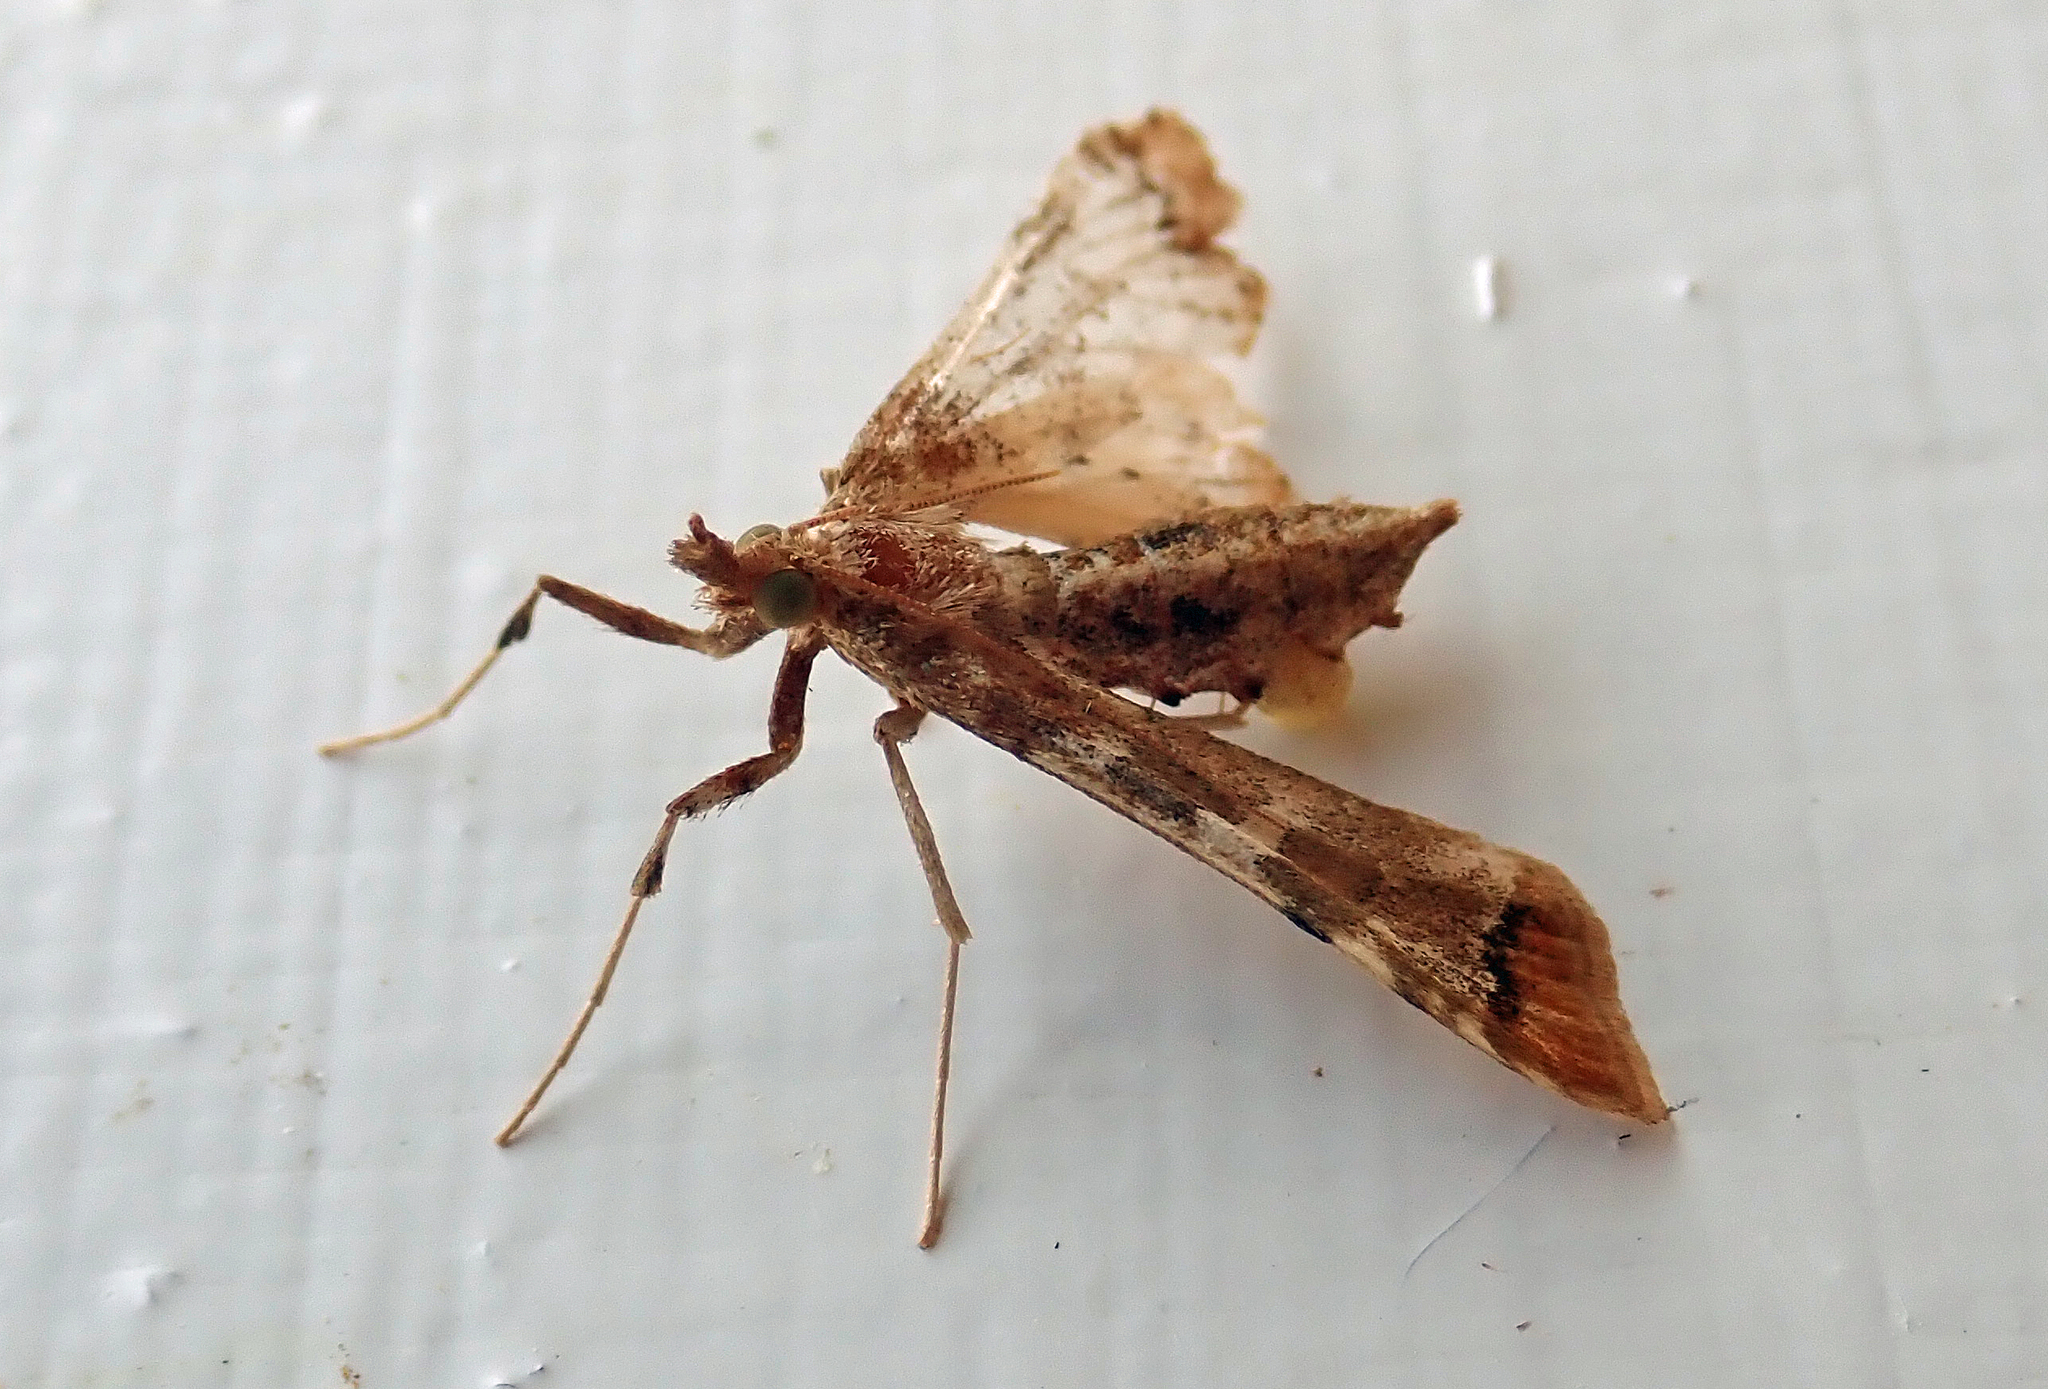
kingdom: Animalia
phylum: Arthropoda
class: Insecta
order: Lepidoptera
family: Crambidae
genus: Sceliodes
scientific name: Sceliodes cordalis
